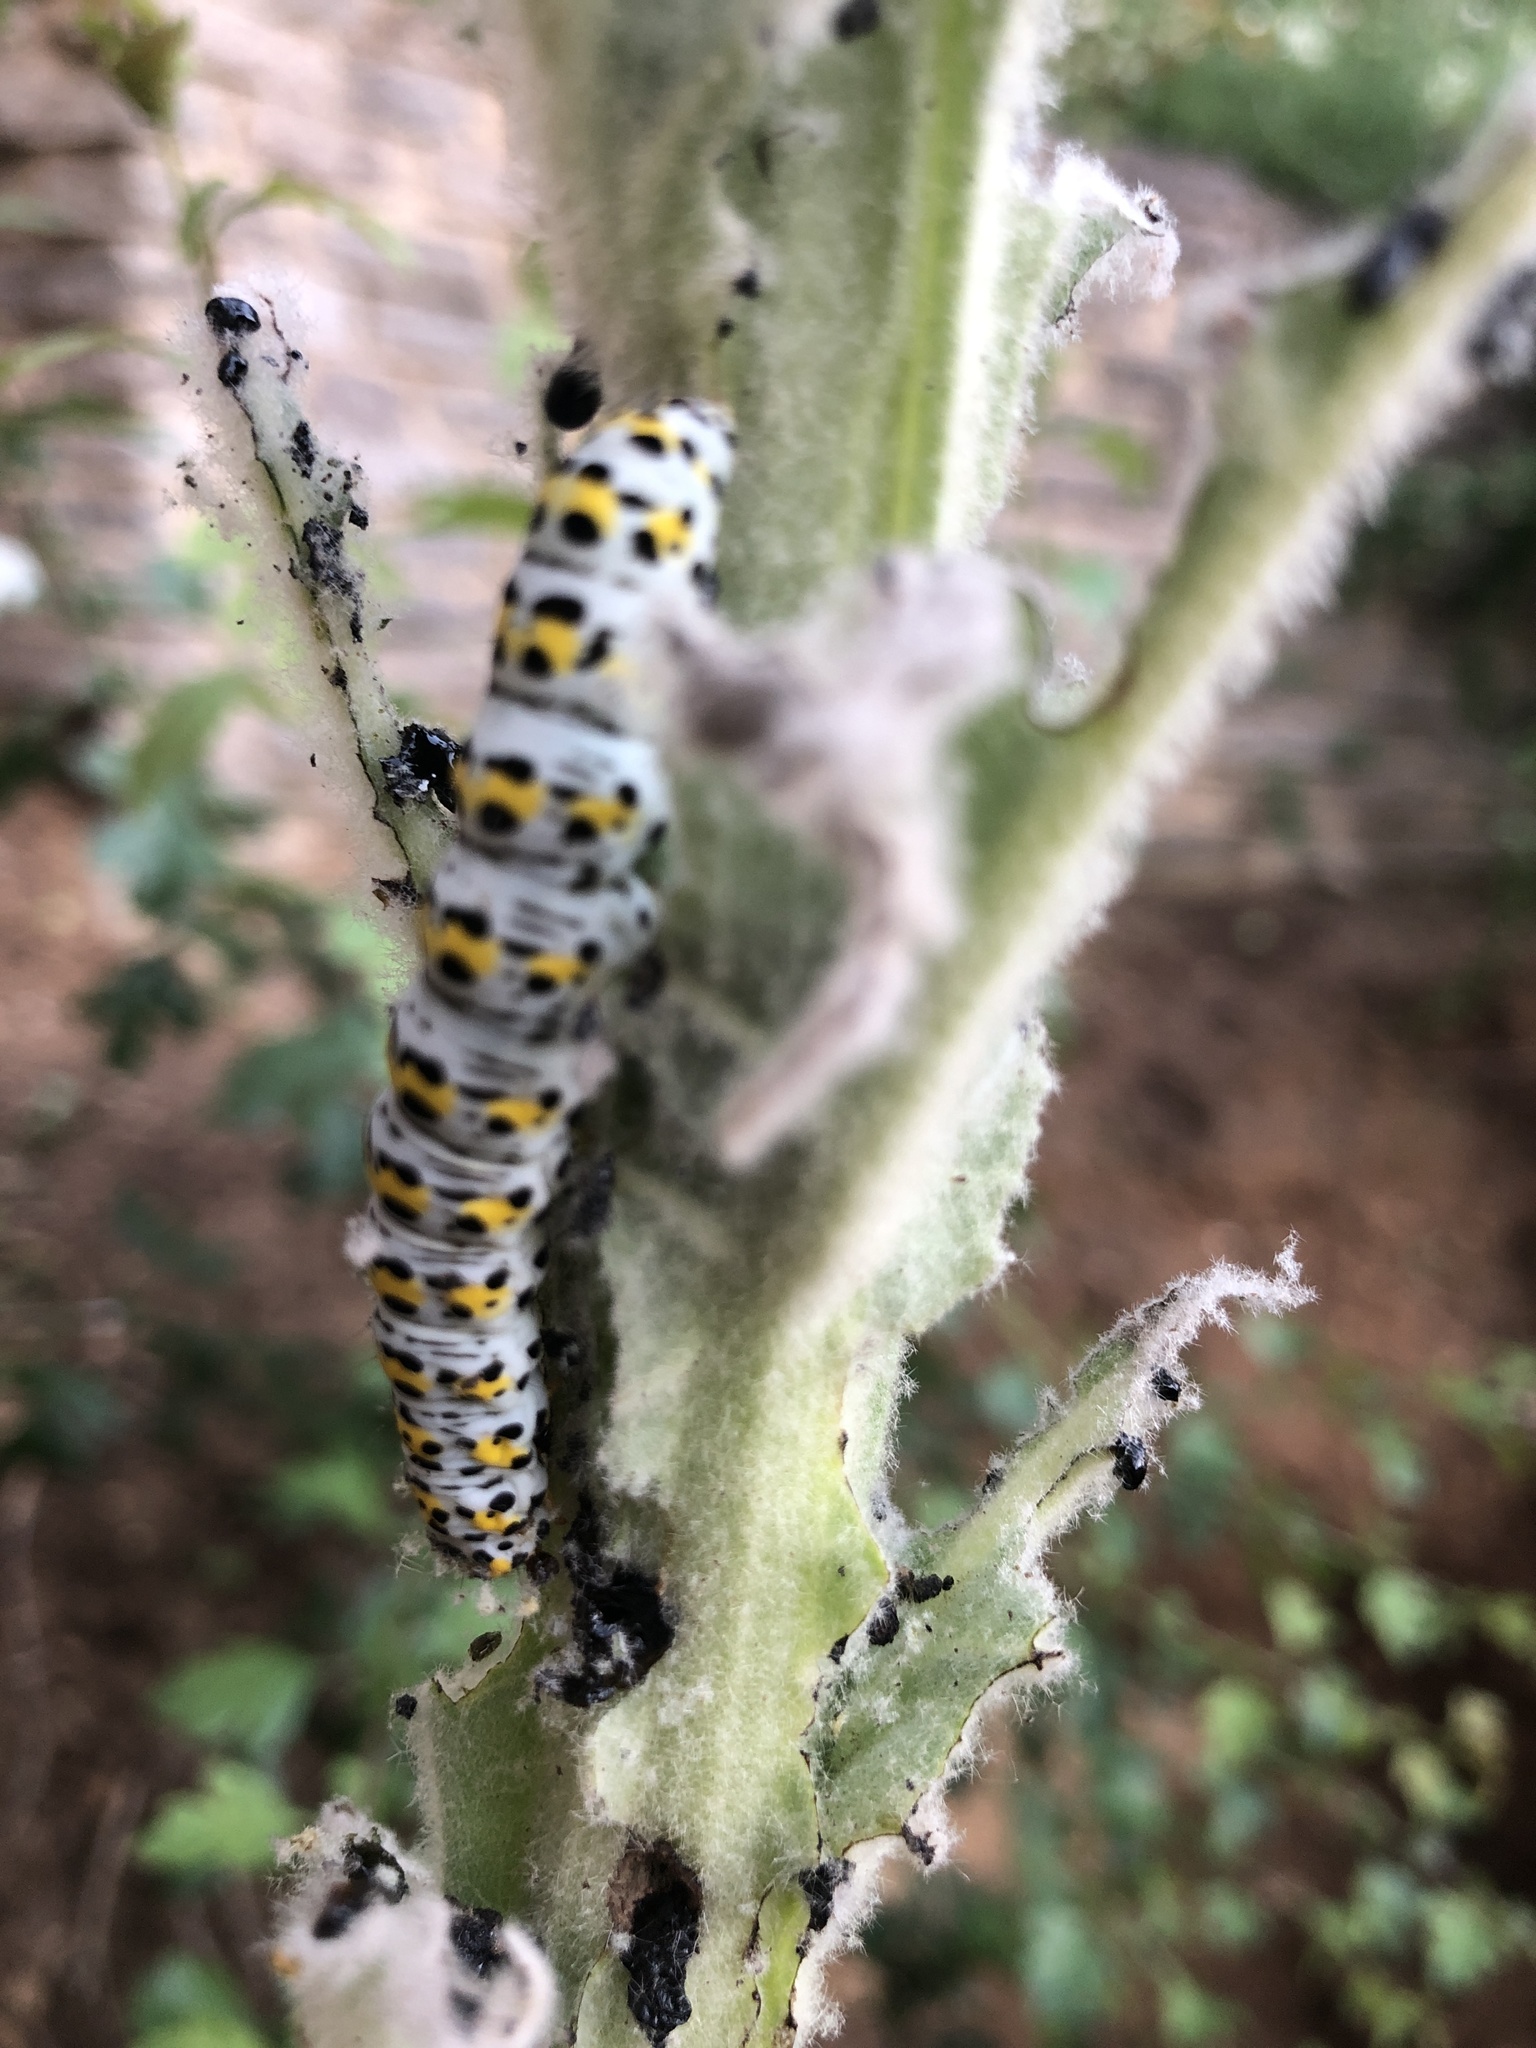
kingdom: Animalia
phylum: Arthropoda
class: Insecta
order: Lepidoptera
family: Noctuidae
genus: Cucullia
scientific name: Cucullia verbasci
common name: Mullein
